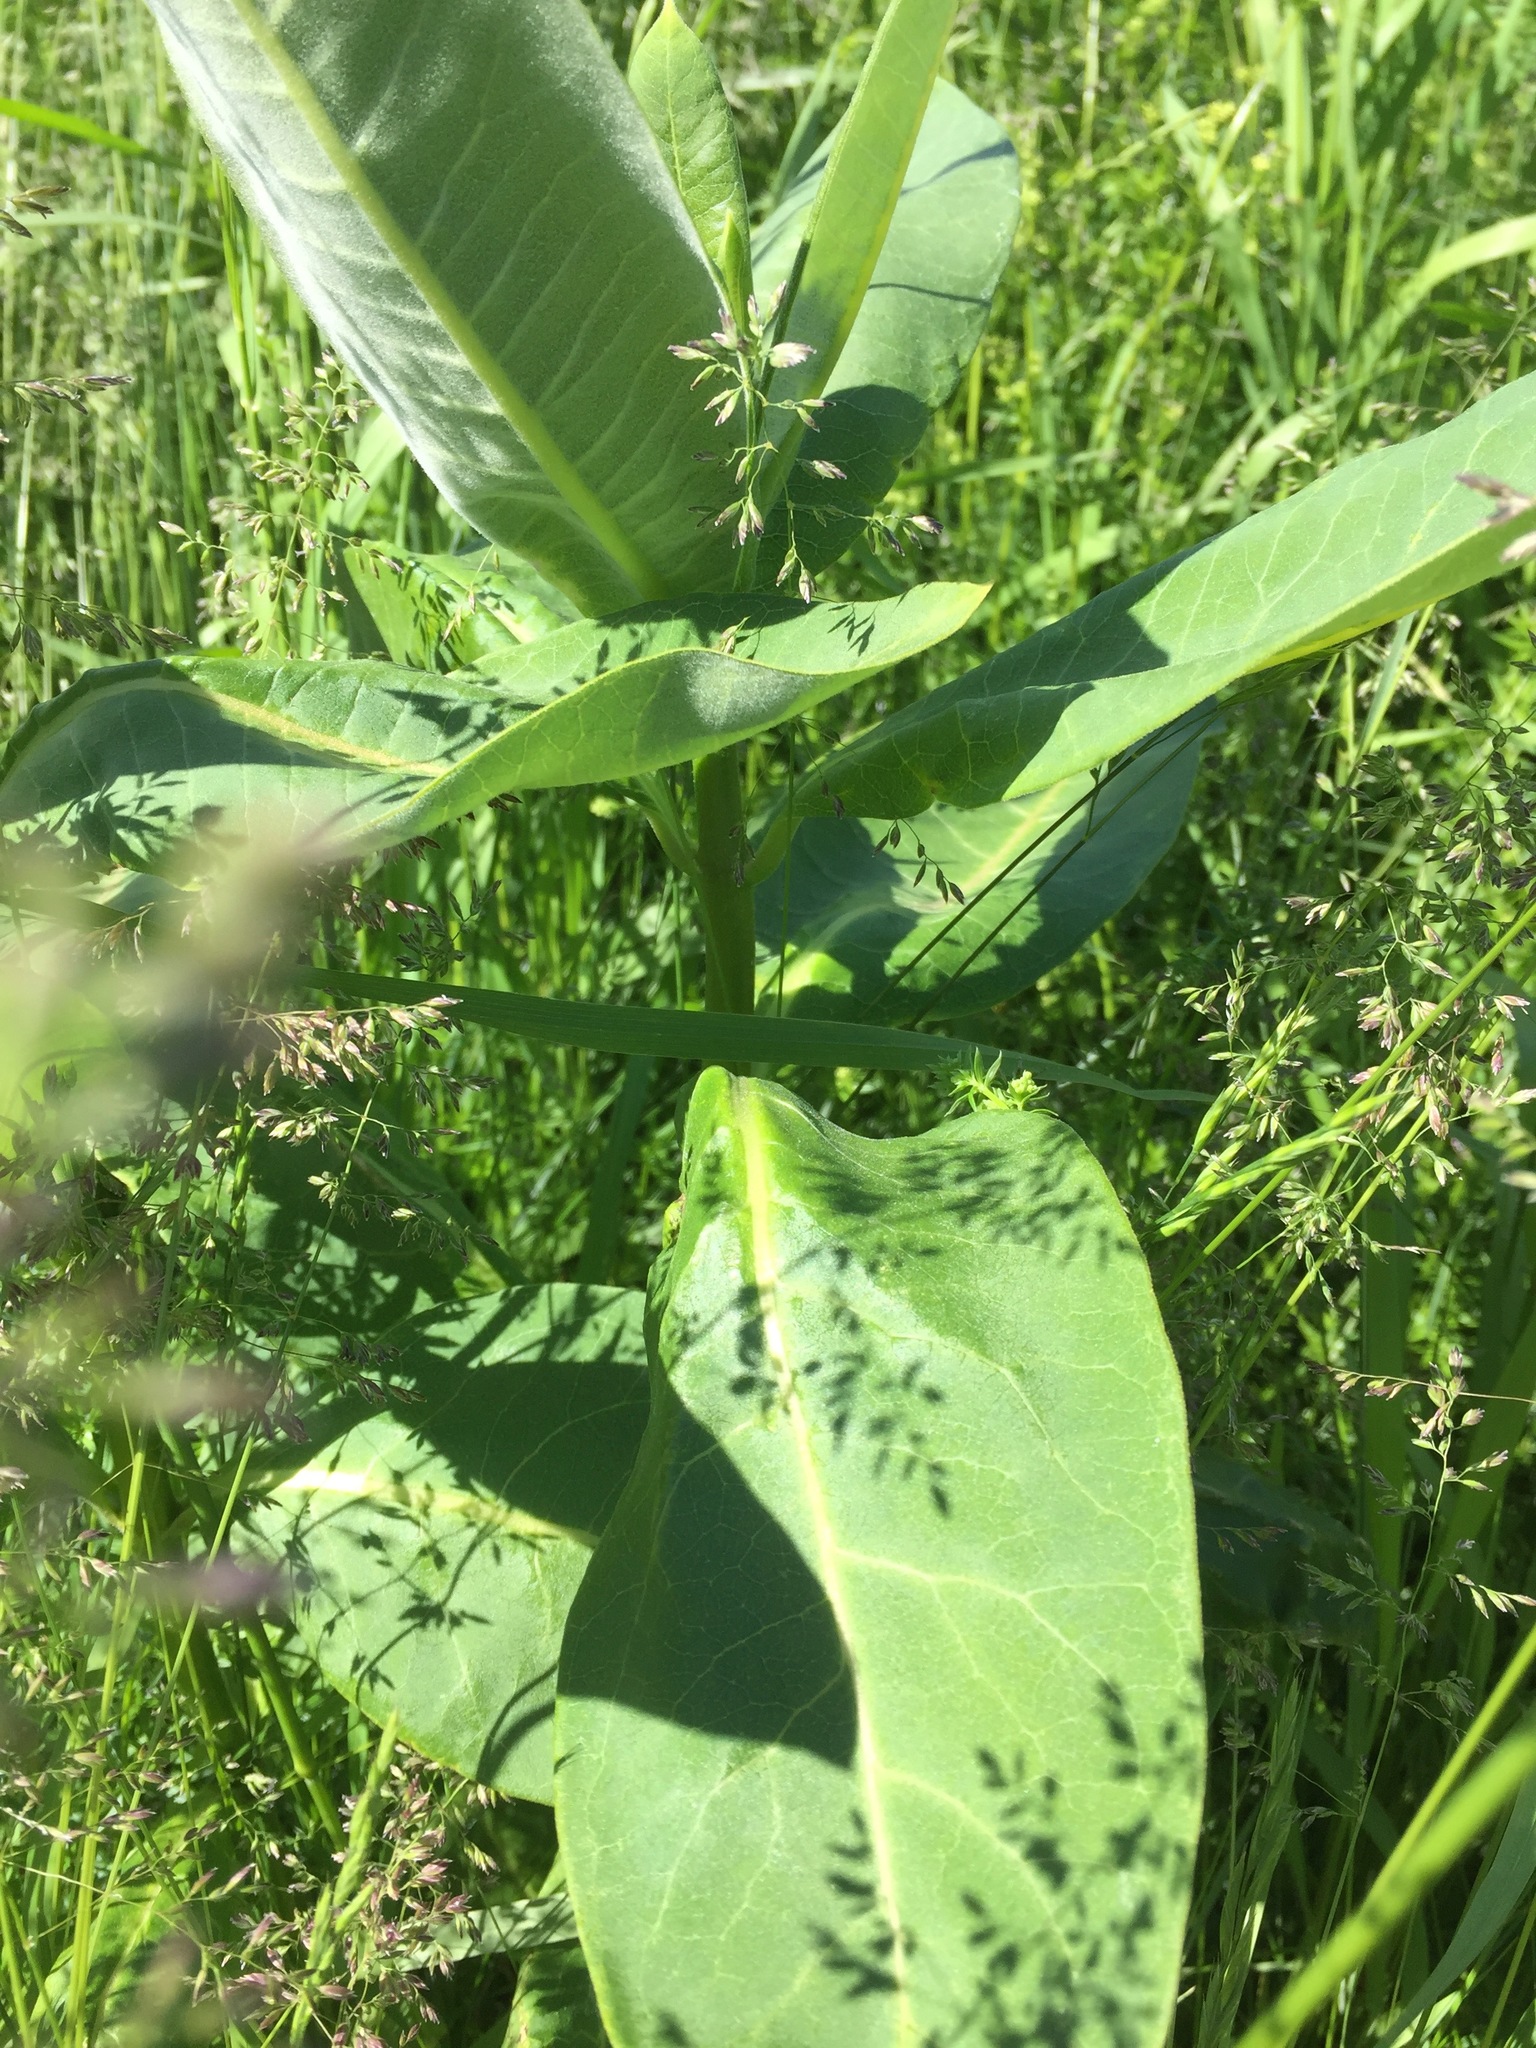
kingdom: Plantae
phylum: Tracheophyta
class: Magnoliopsida
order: Gentianales
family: Apocynaceae
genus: Asclepias
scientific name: Asclepias syriaca
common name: Common milkweed
